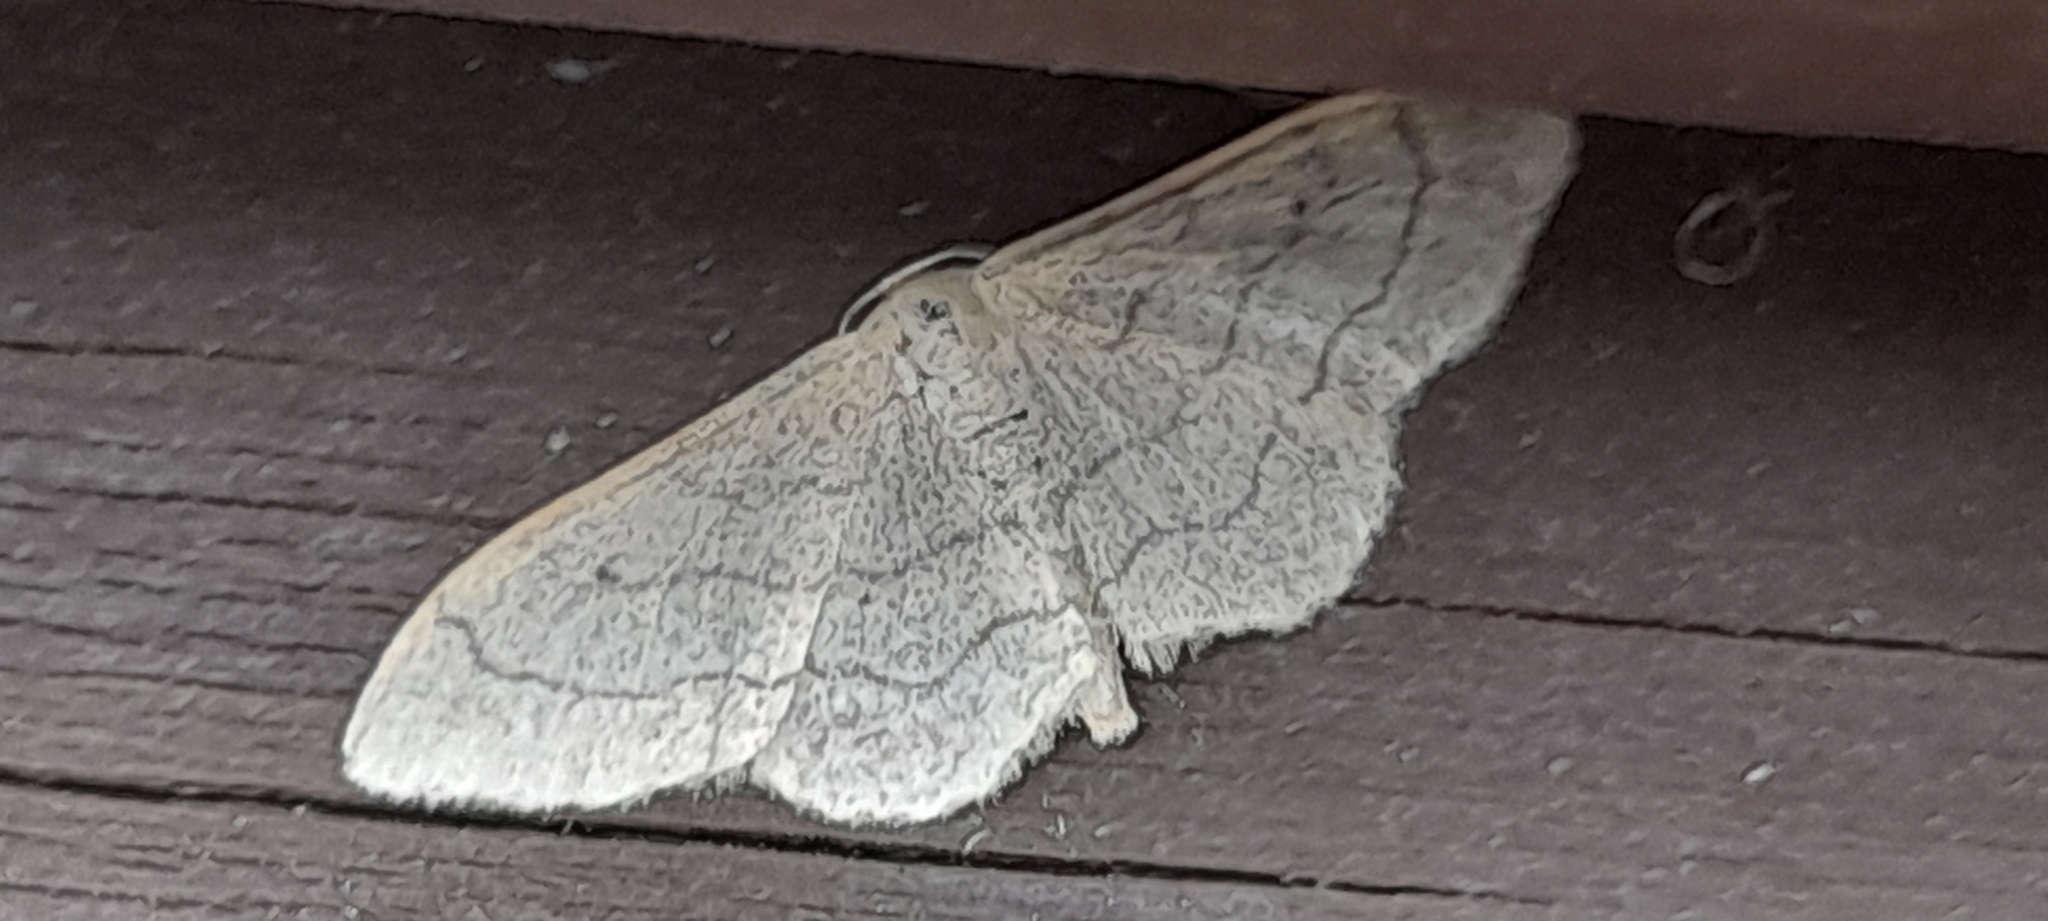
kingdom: Animalia
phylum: Arthropoda
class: Insecta
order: Lepidoptera
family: Geometridae
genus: Idaea
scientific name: Idaea aversata
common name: Riband wave
